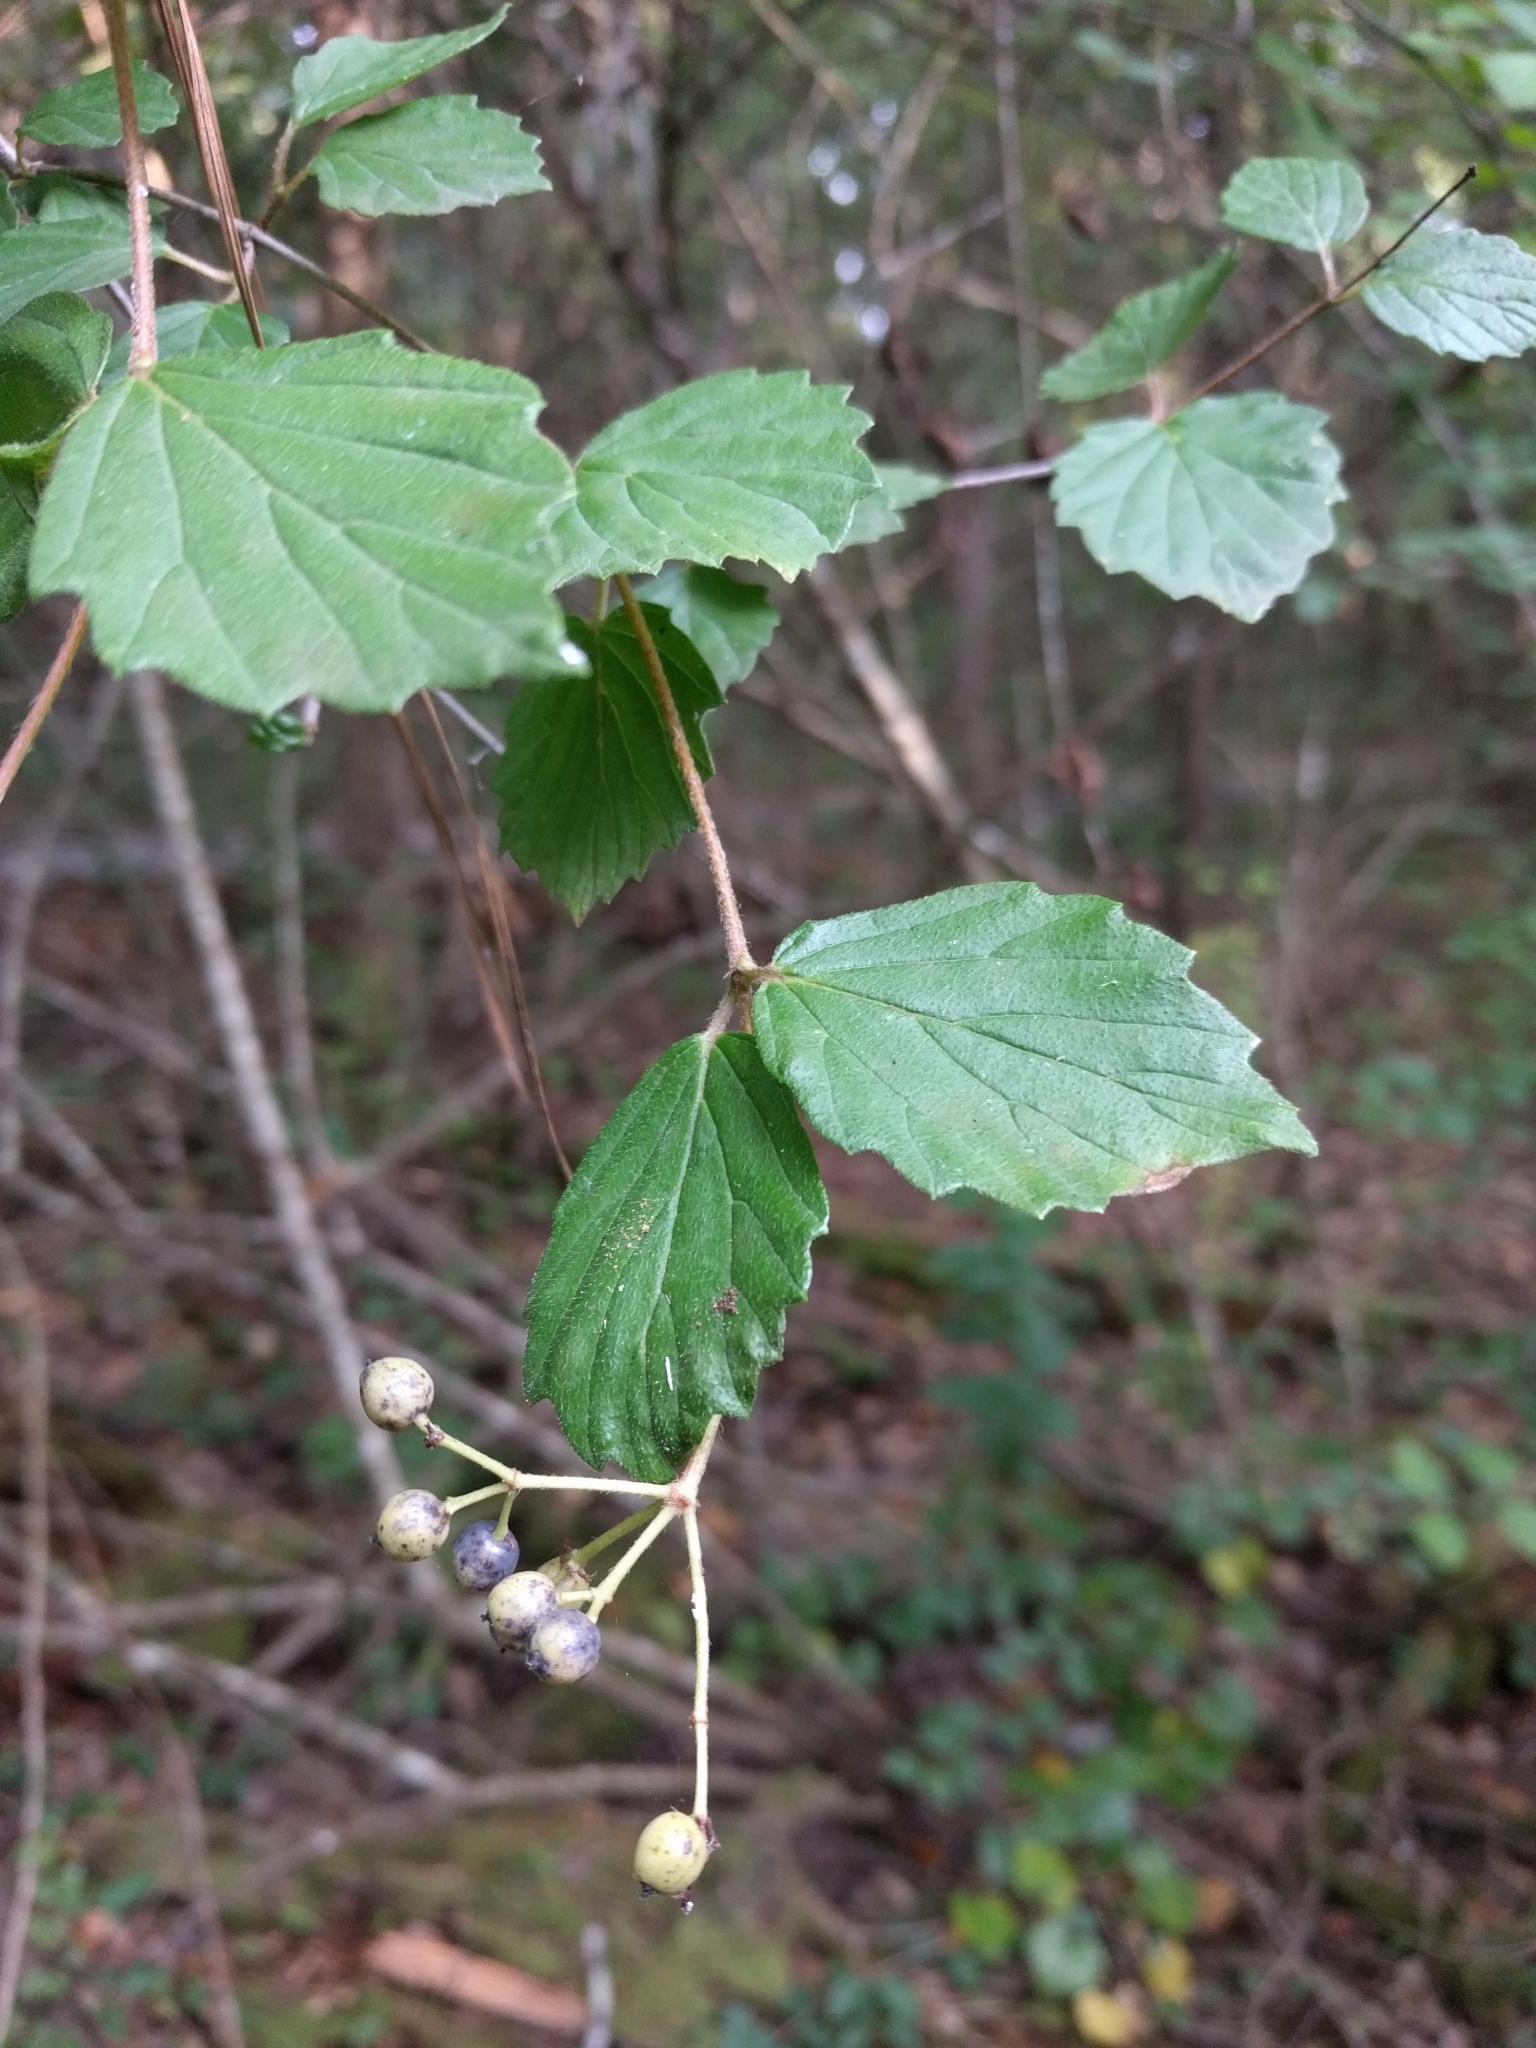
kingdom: Plantae
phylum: Tracheophyta
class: Magnoliopsida
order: Dipsacales
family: Viburnaceae
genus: Viburnum
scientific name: Viburnum scabrellum
